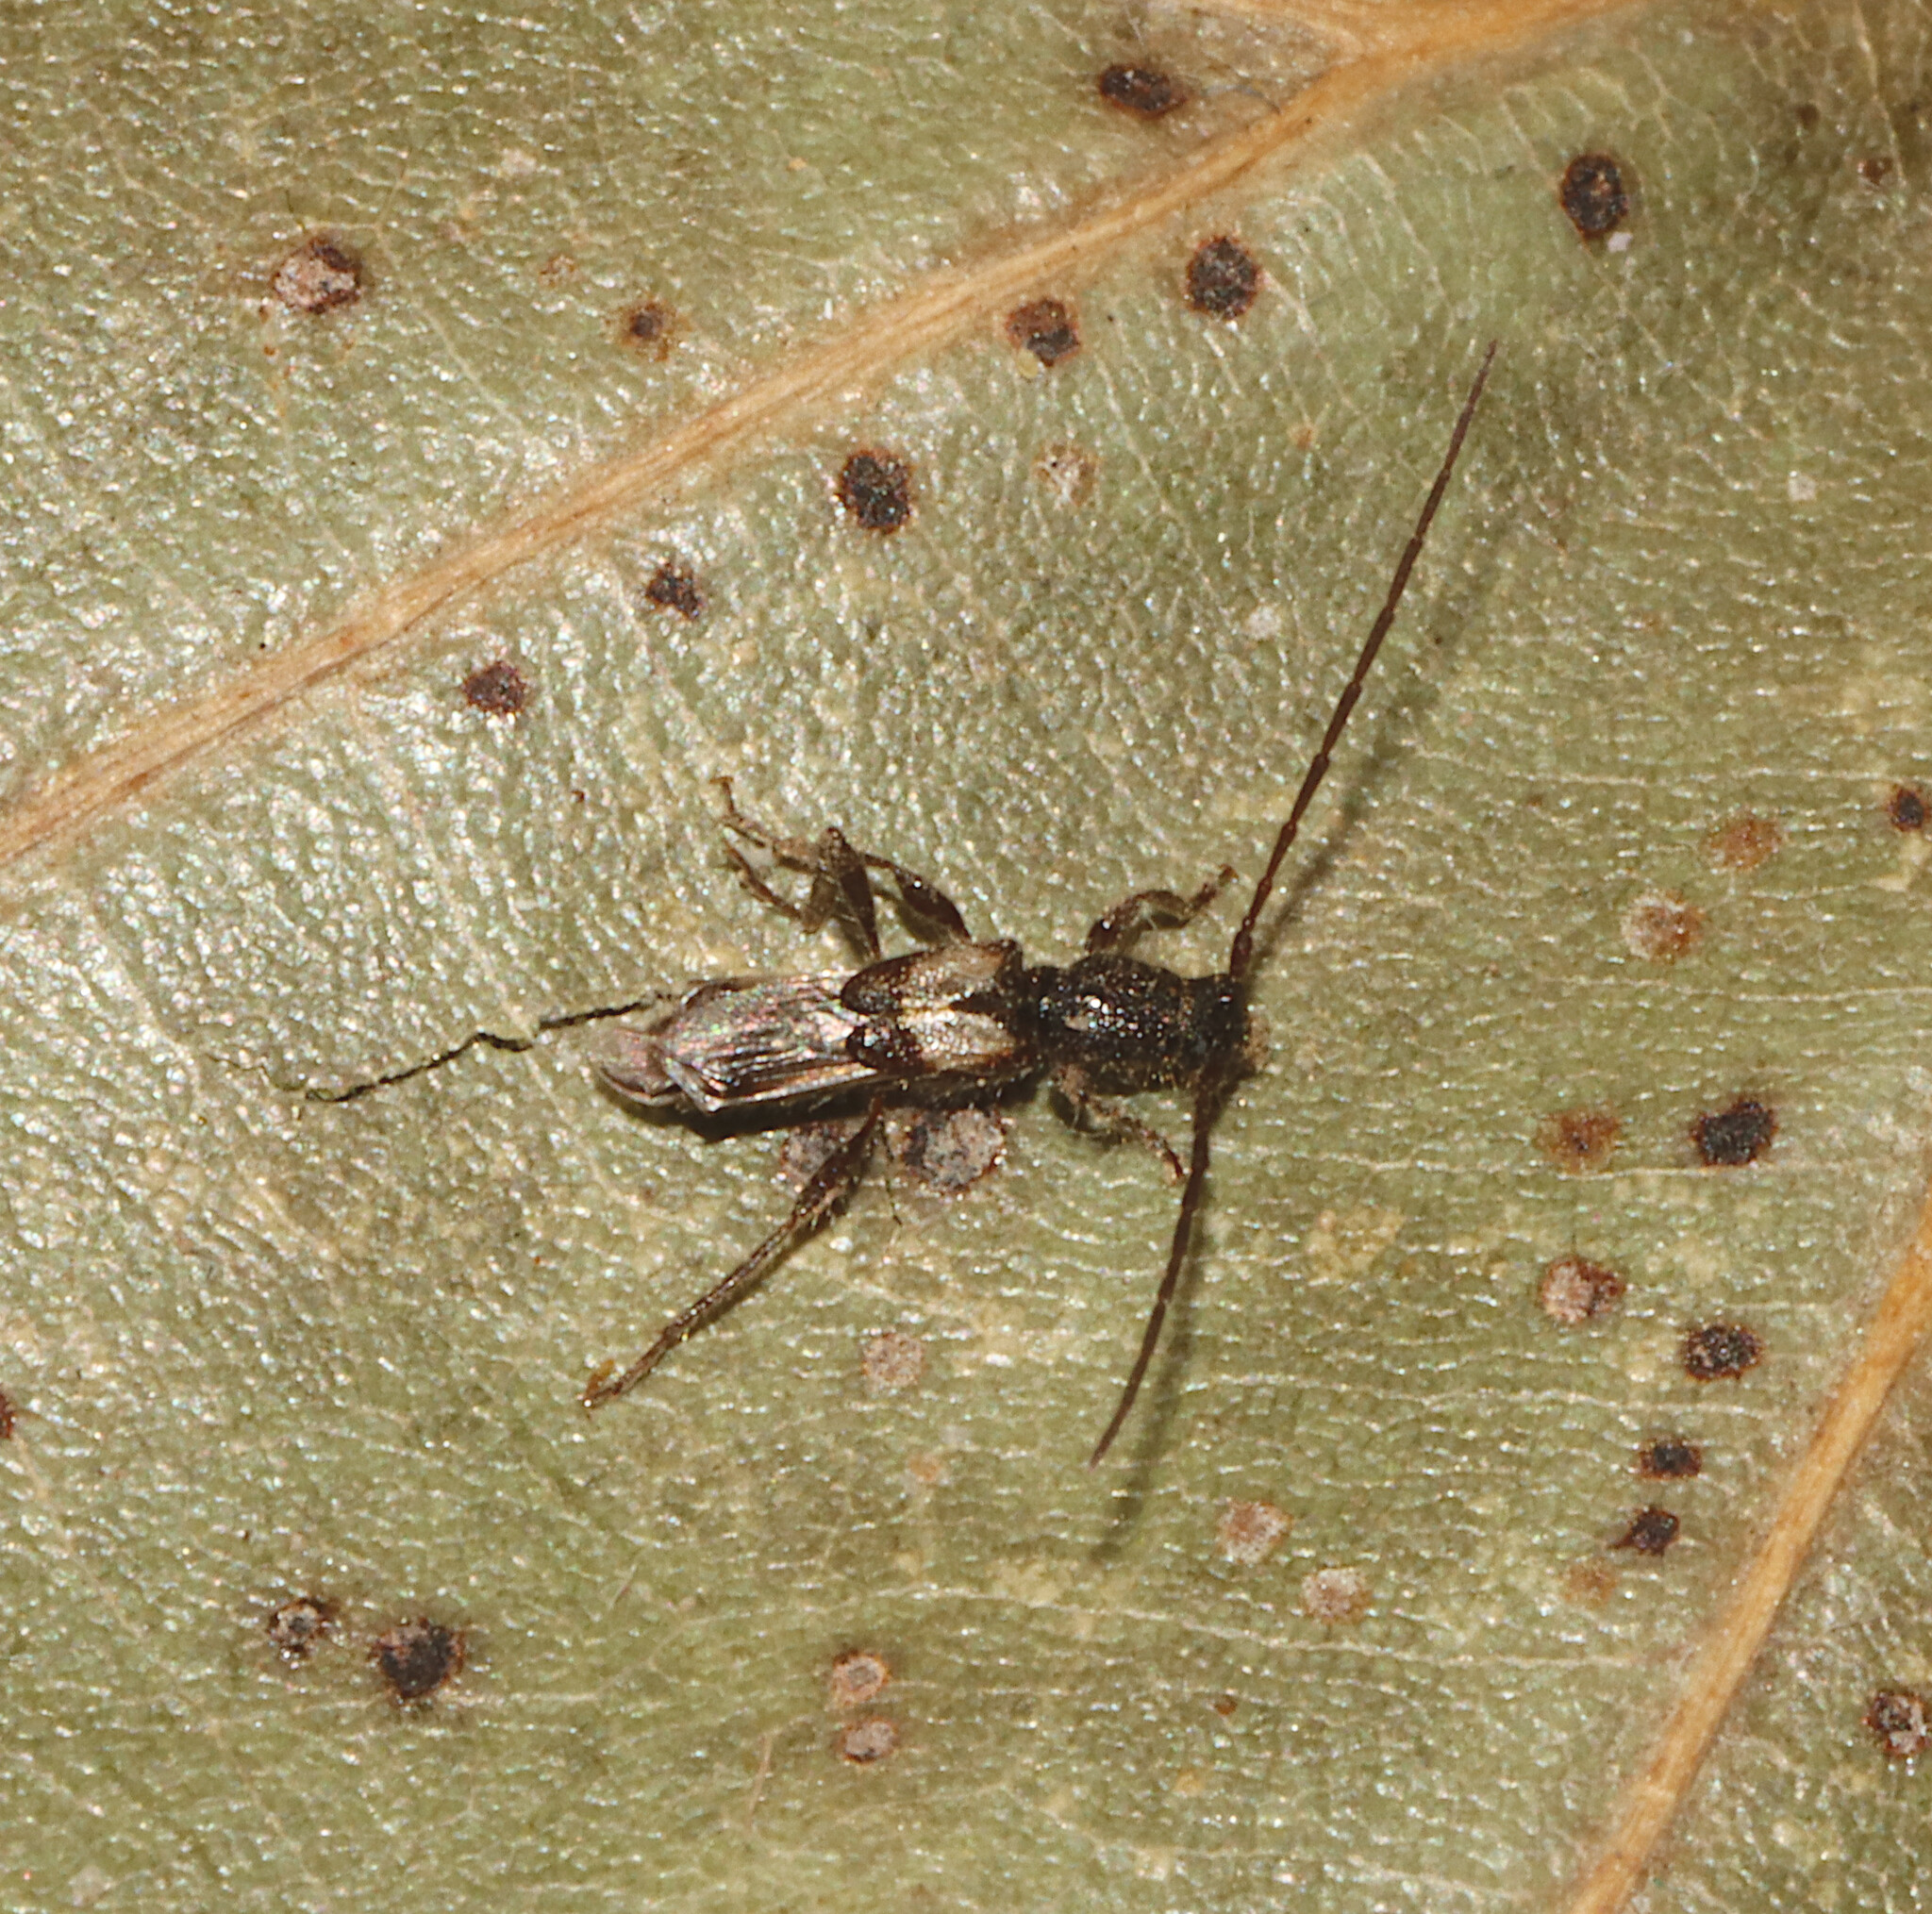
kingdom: Animalia
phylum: Arthropoda
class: Insecta
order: Coleoptera
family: Cerambycidae
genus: Molorchus
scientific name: Molorchus bimaculatus
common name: Bimaculate longhorn beetle
